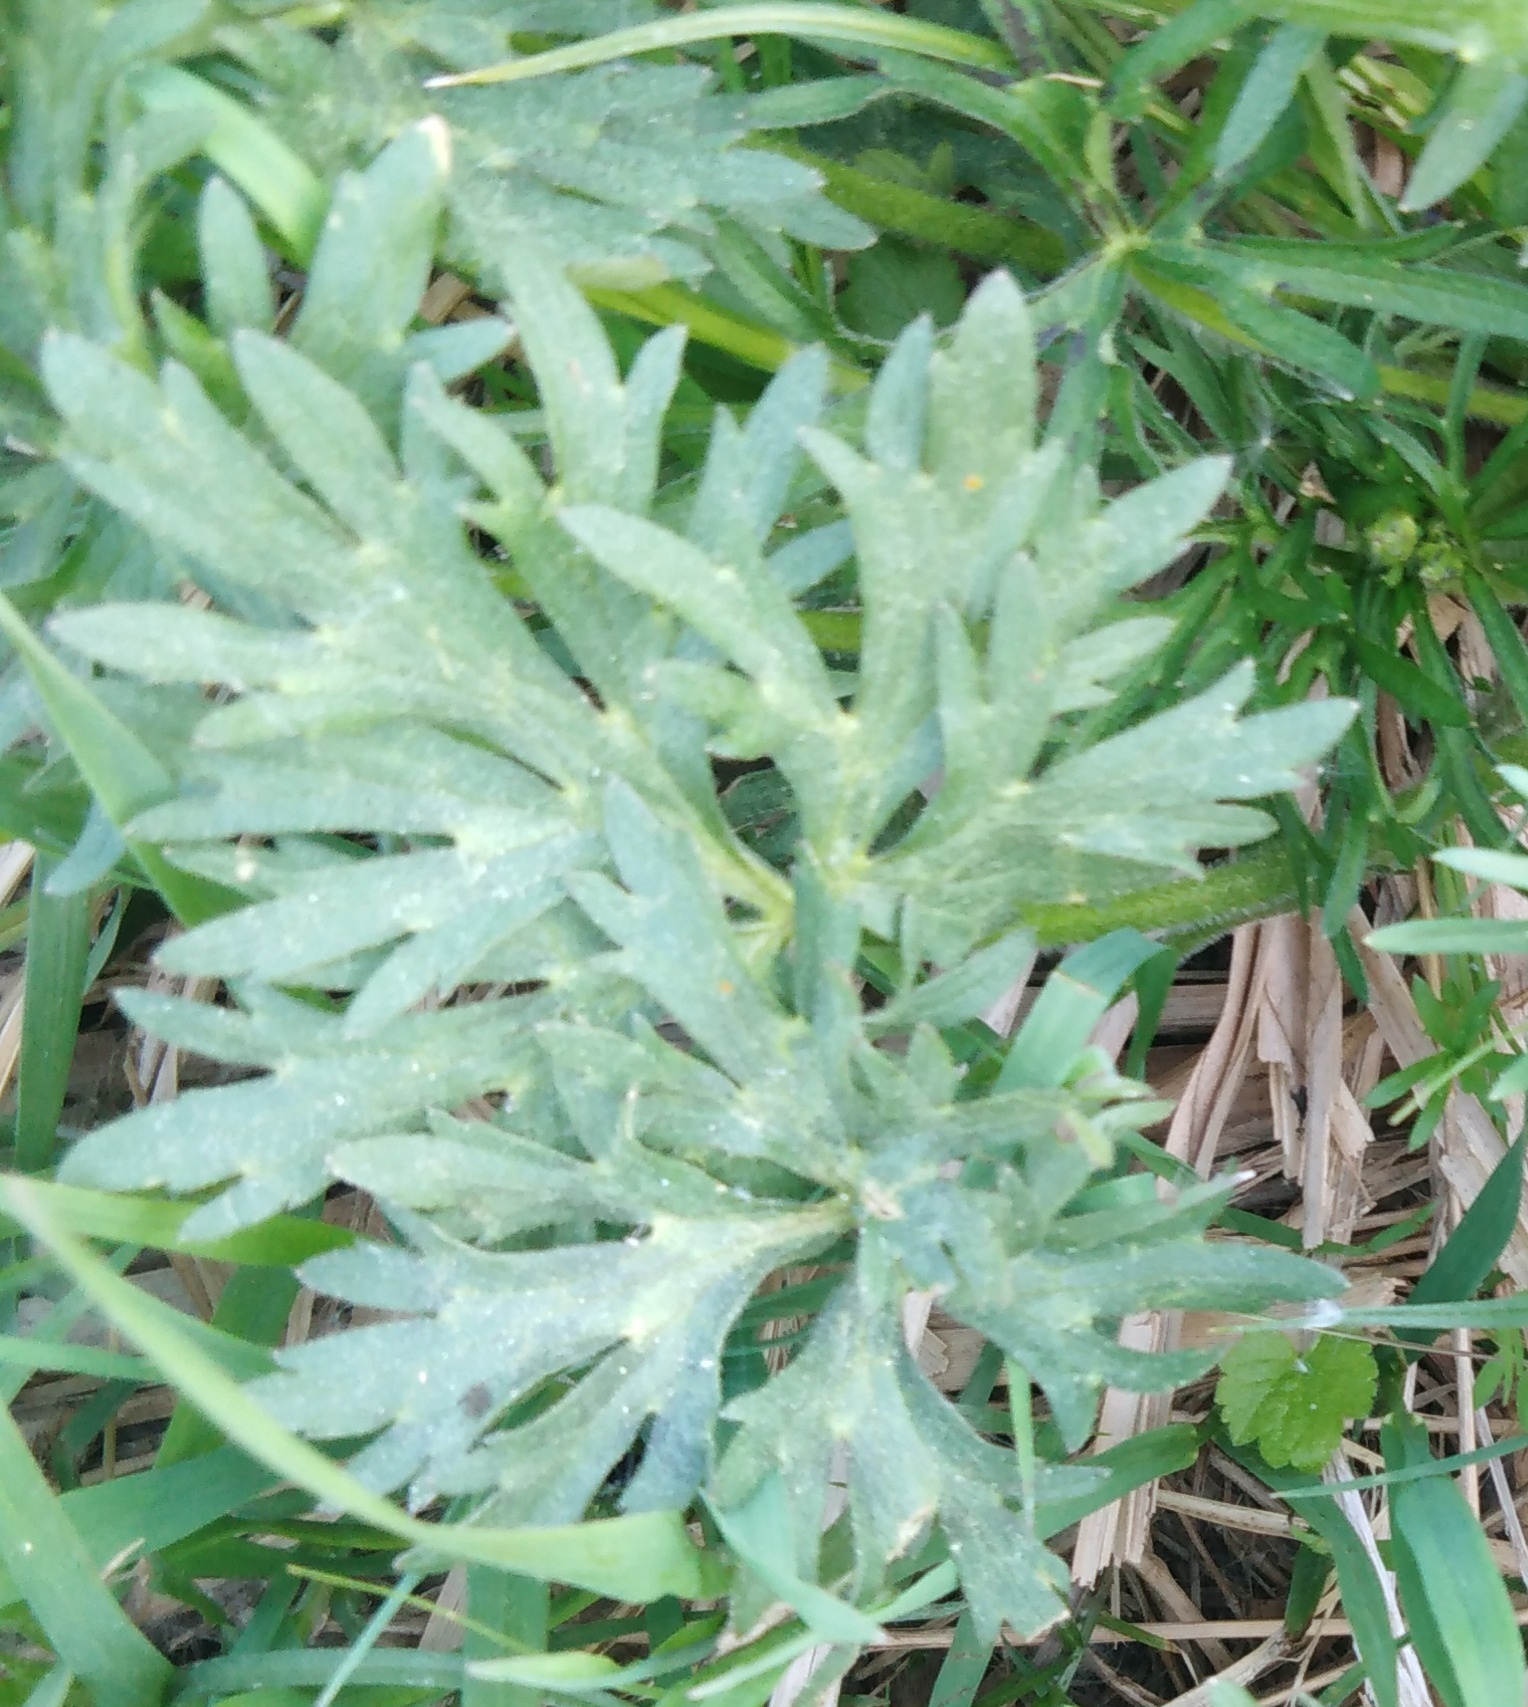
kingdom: Plantae
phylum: Tracheophyta
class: Magnoliopsida
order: Asterales
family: Asteraceae
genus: Artemisia
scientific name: Artemisia absinthium
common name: Wormwood
